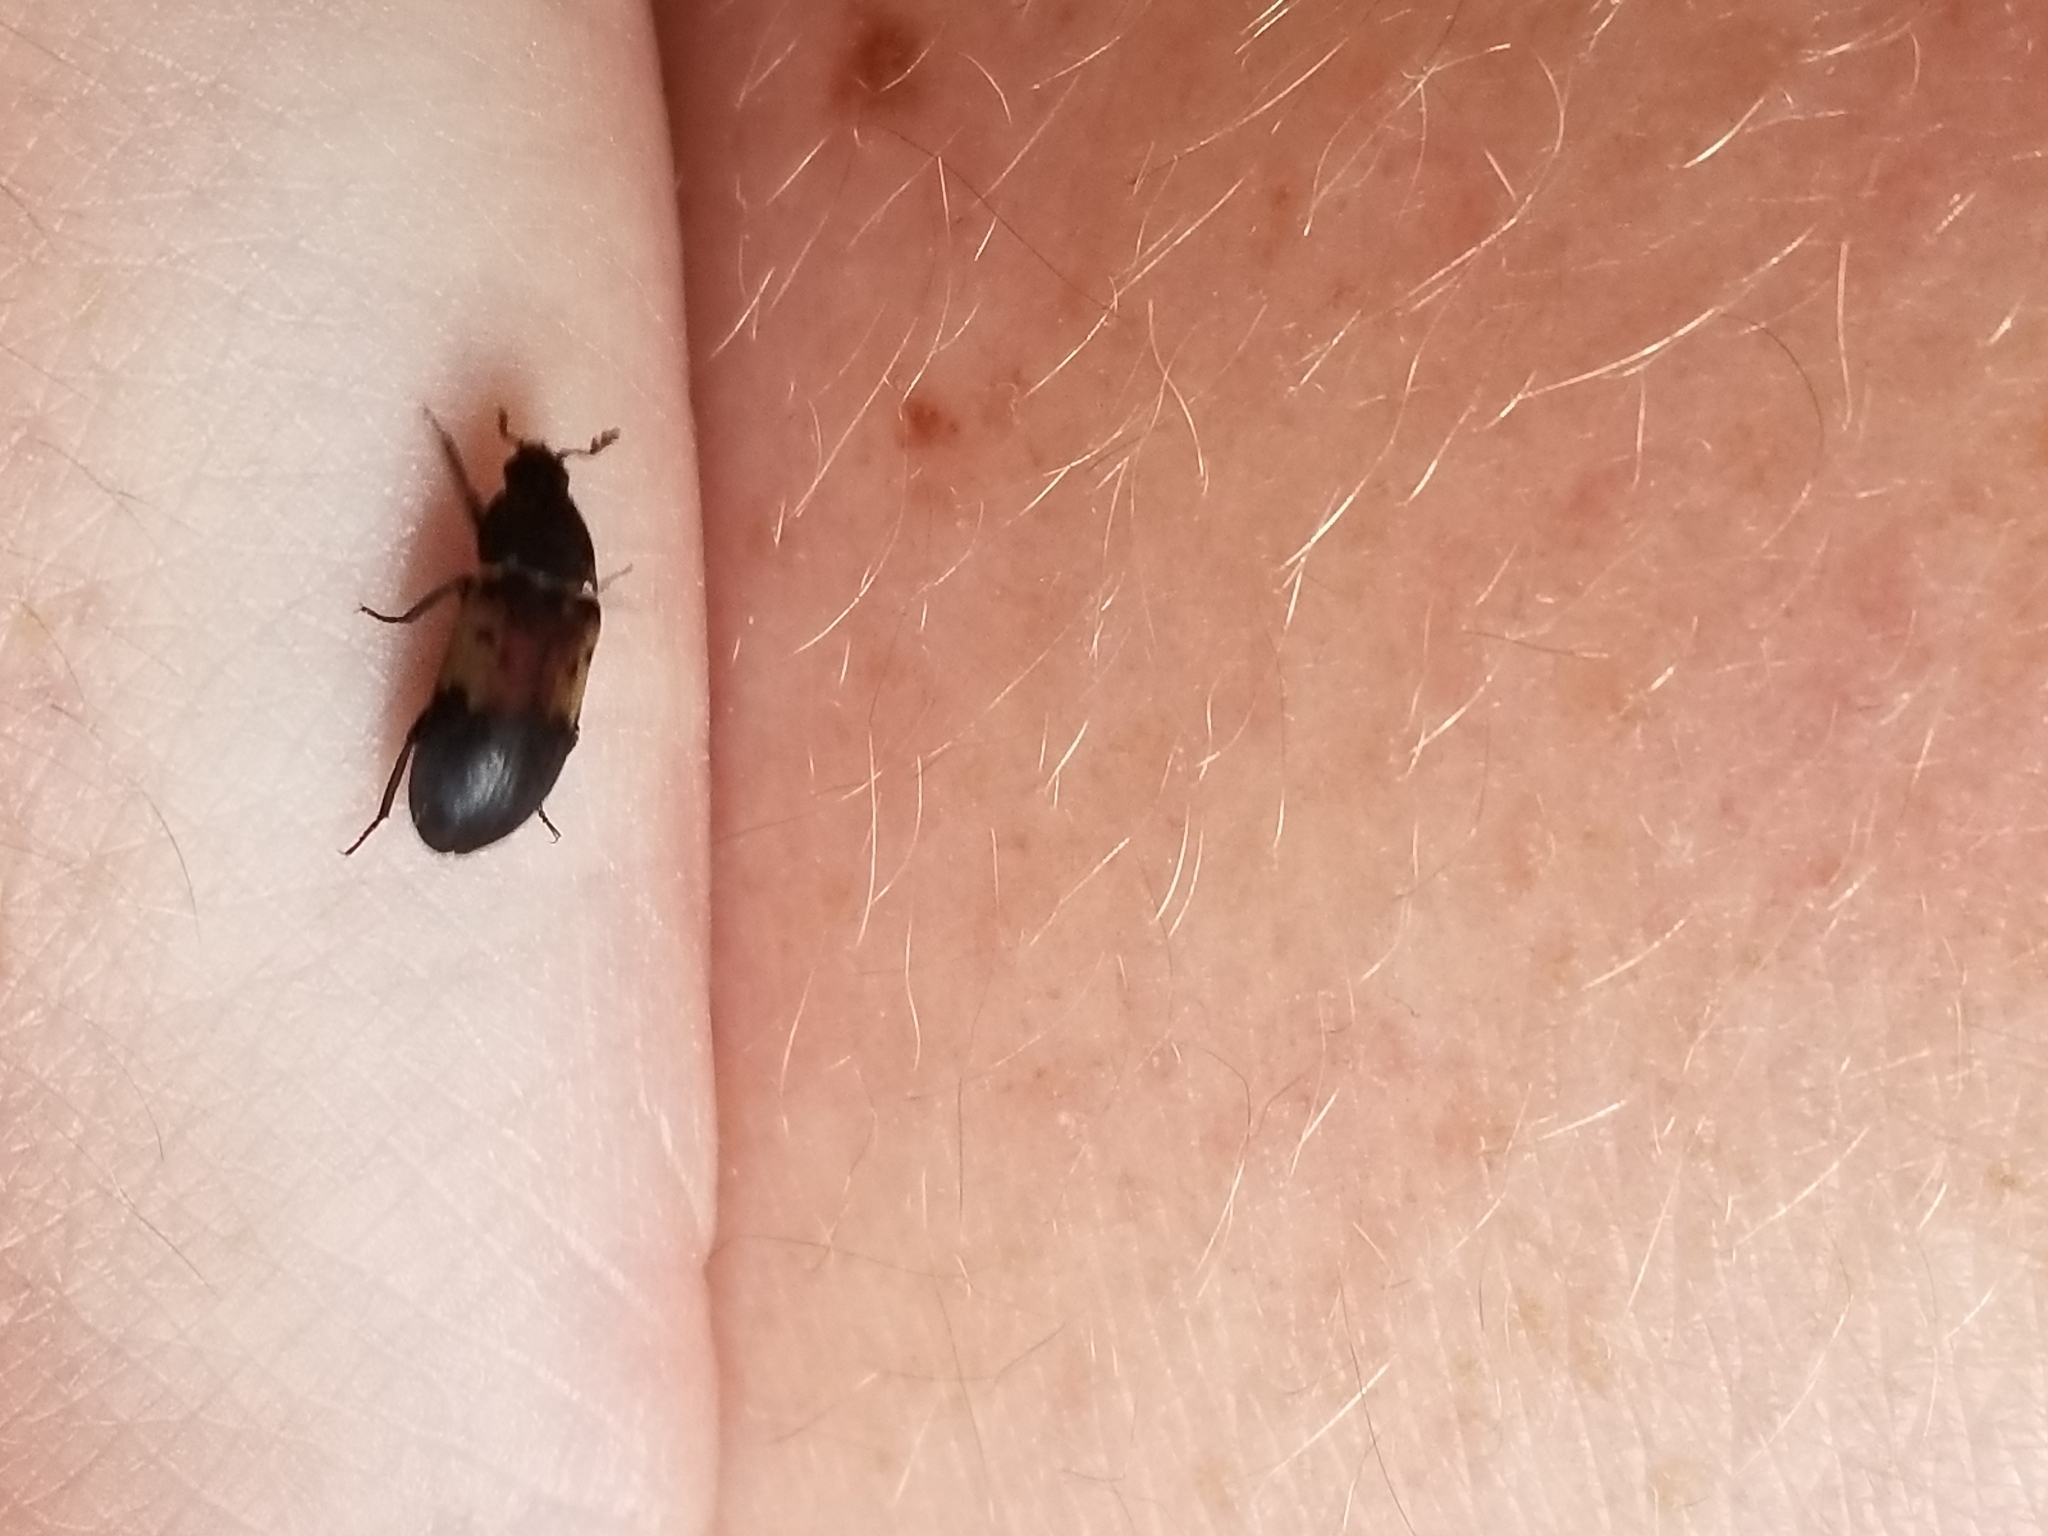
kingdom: Animalia
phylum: Arthropoda
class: Insecta
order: Coleoptera
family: Dermestidae
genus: Dermestes
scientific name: Dermestes lardarius
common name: Larder beetle
